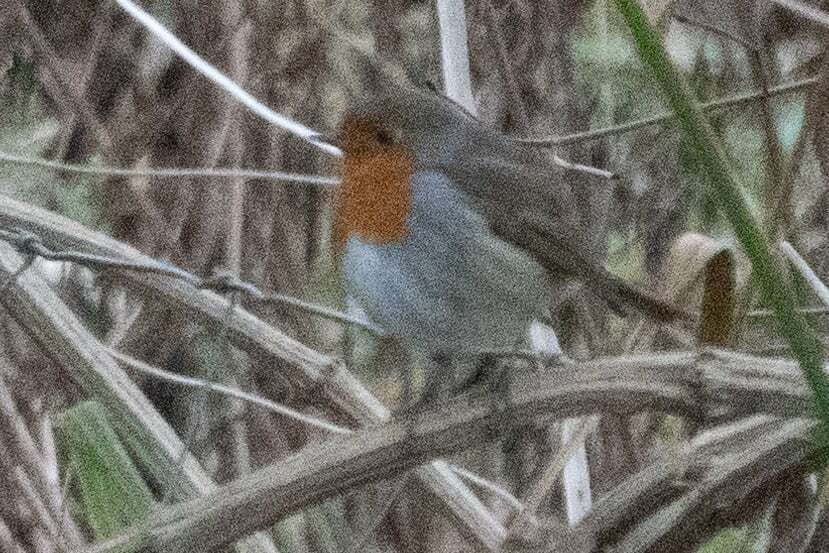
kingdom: Animalia
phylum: Chordata
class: Aves
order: Passeriformes
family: Muscicapidae
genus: Erithacus
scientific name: Erithacus rubecula
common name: European robin
